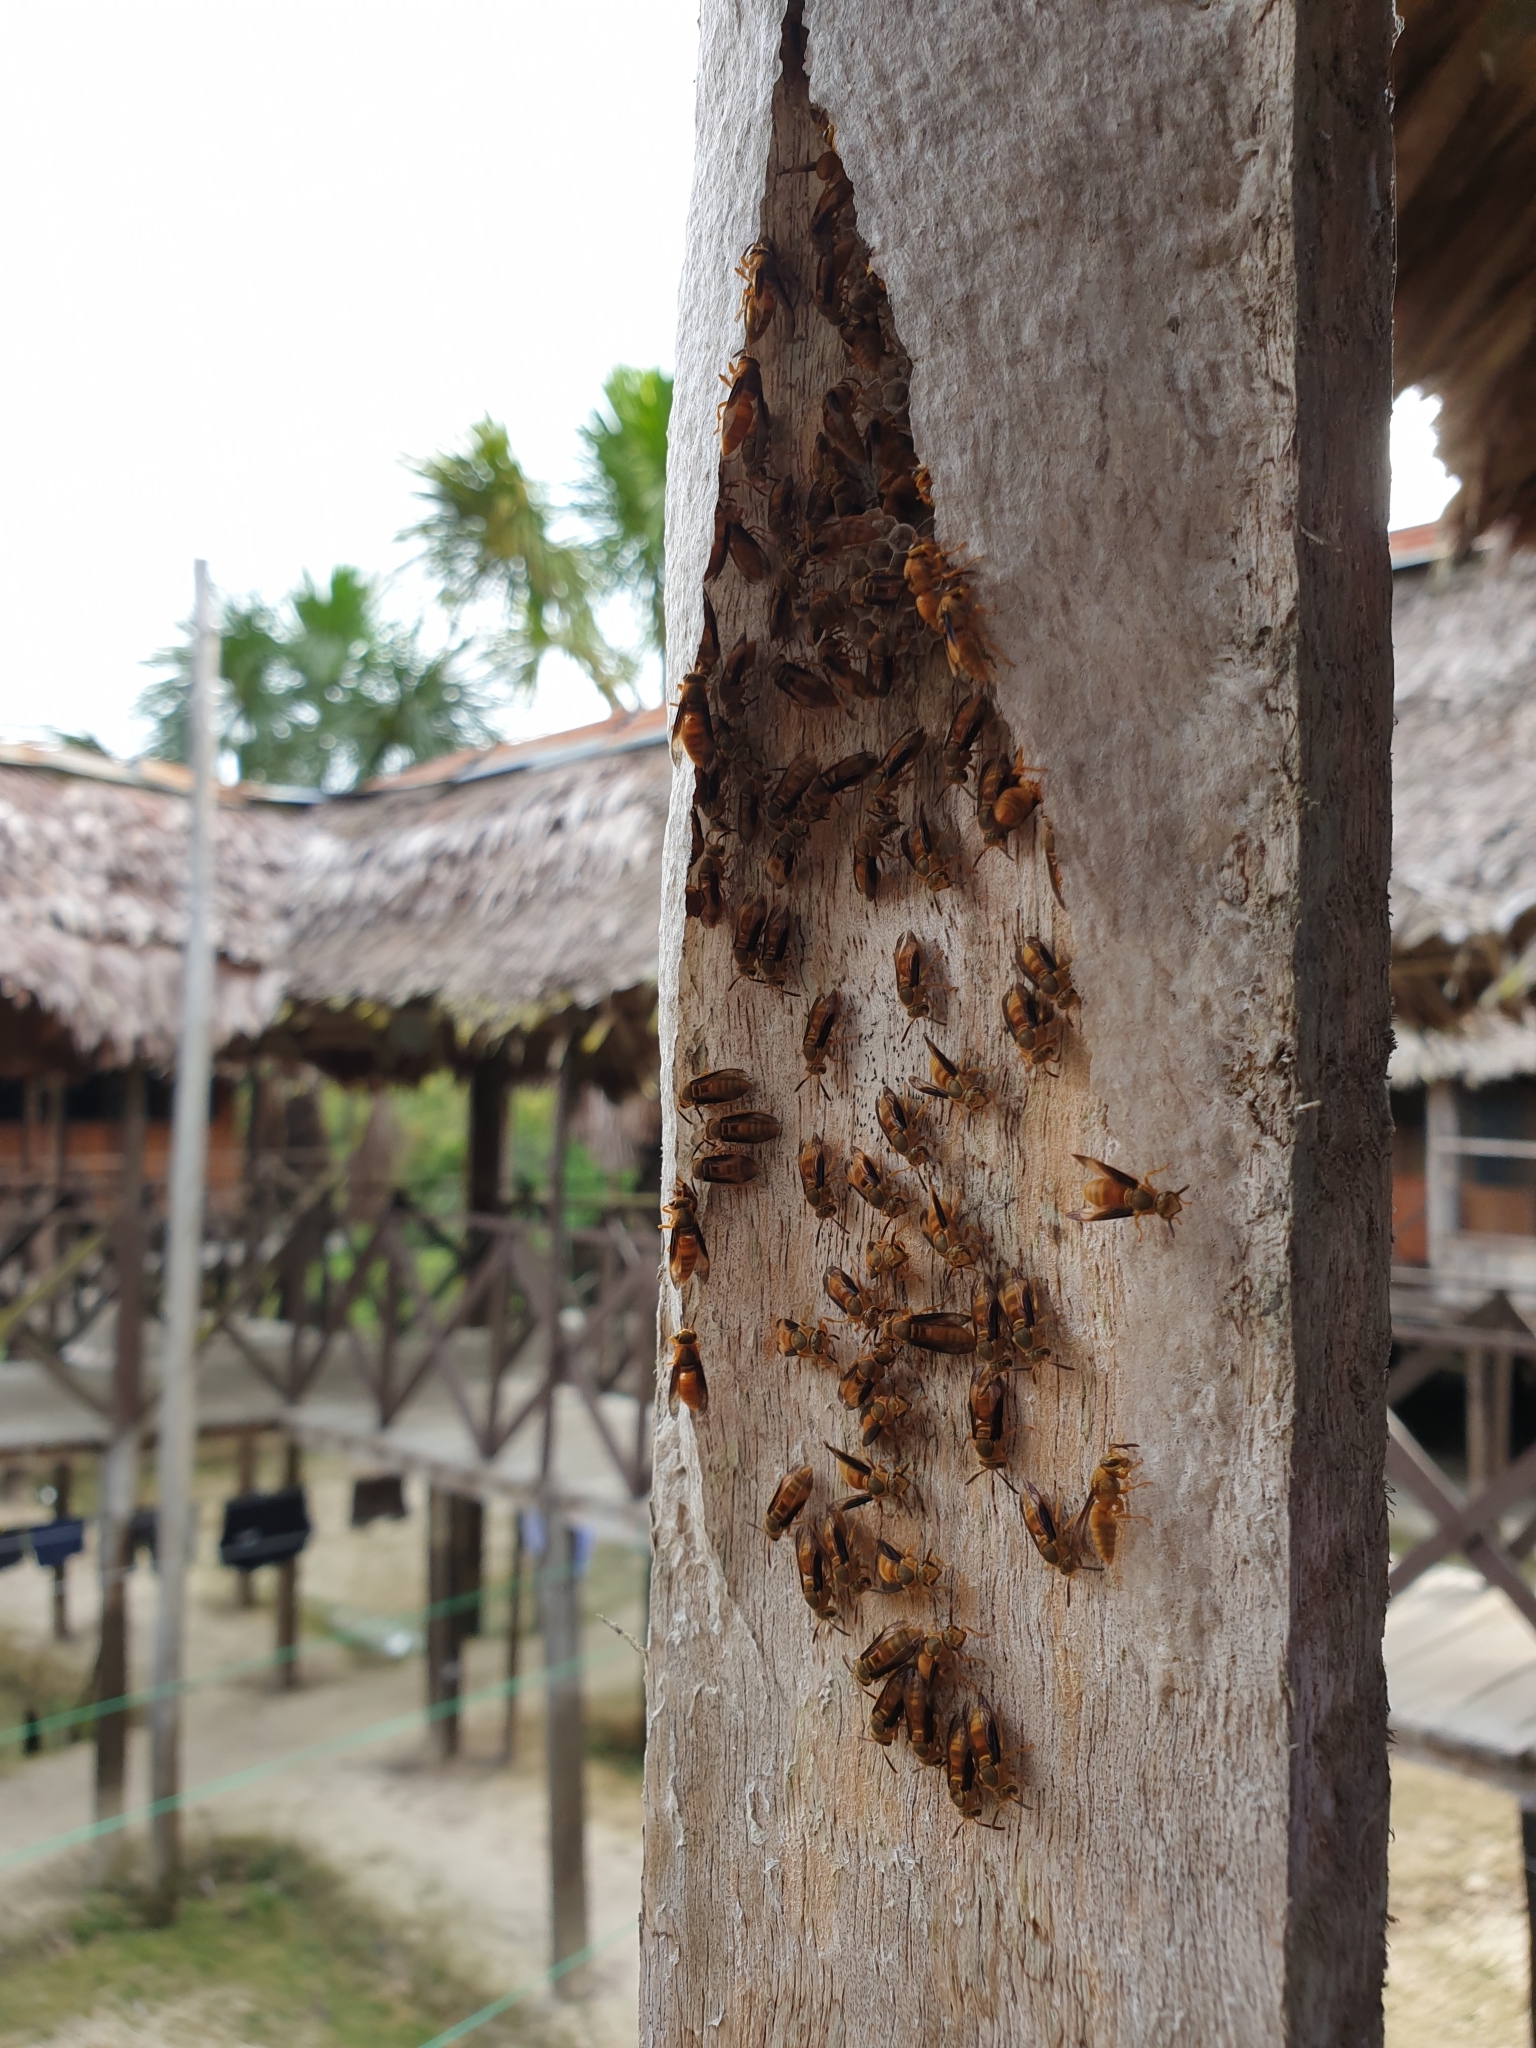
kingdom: Animalia
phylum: Arthropoda
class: Insecta
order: Hymenoptera
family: Vespidae
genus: Parachartergus
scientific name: Parachartergus colobopterus
